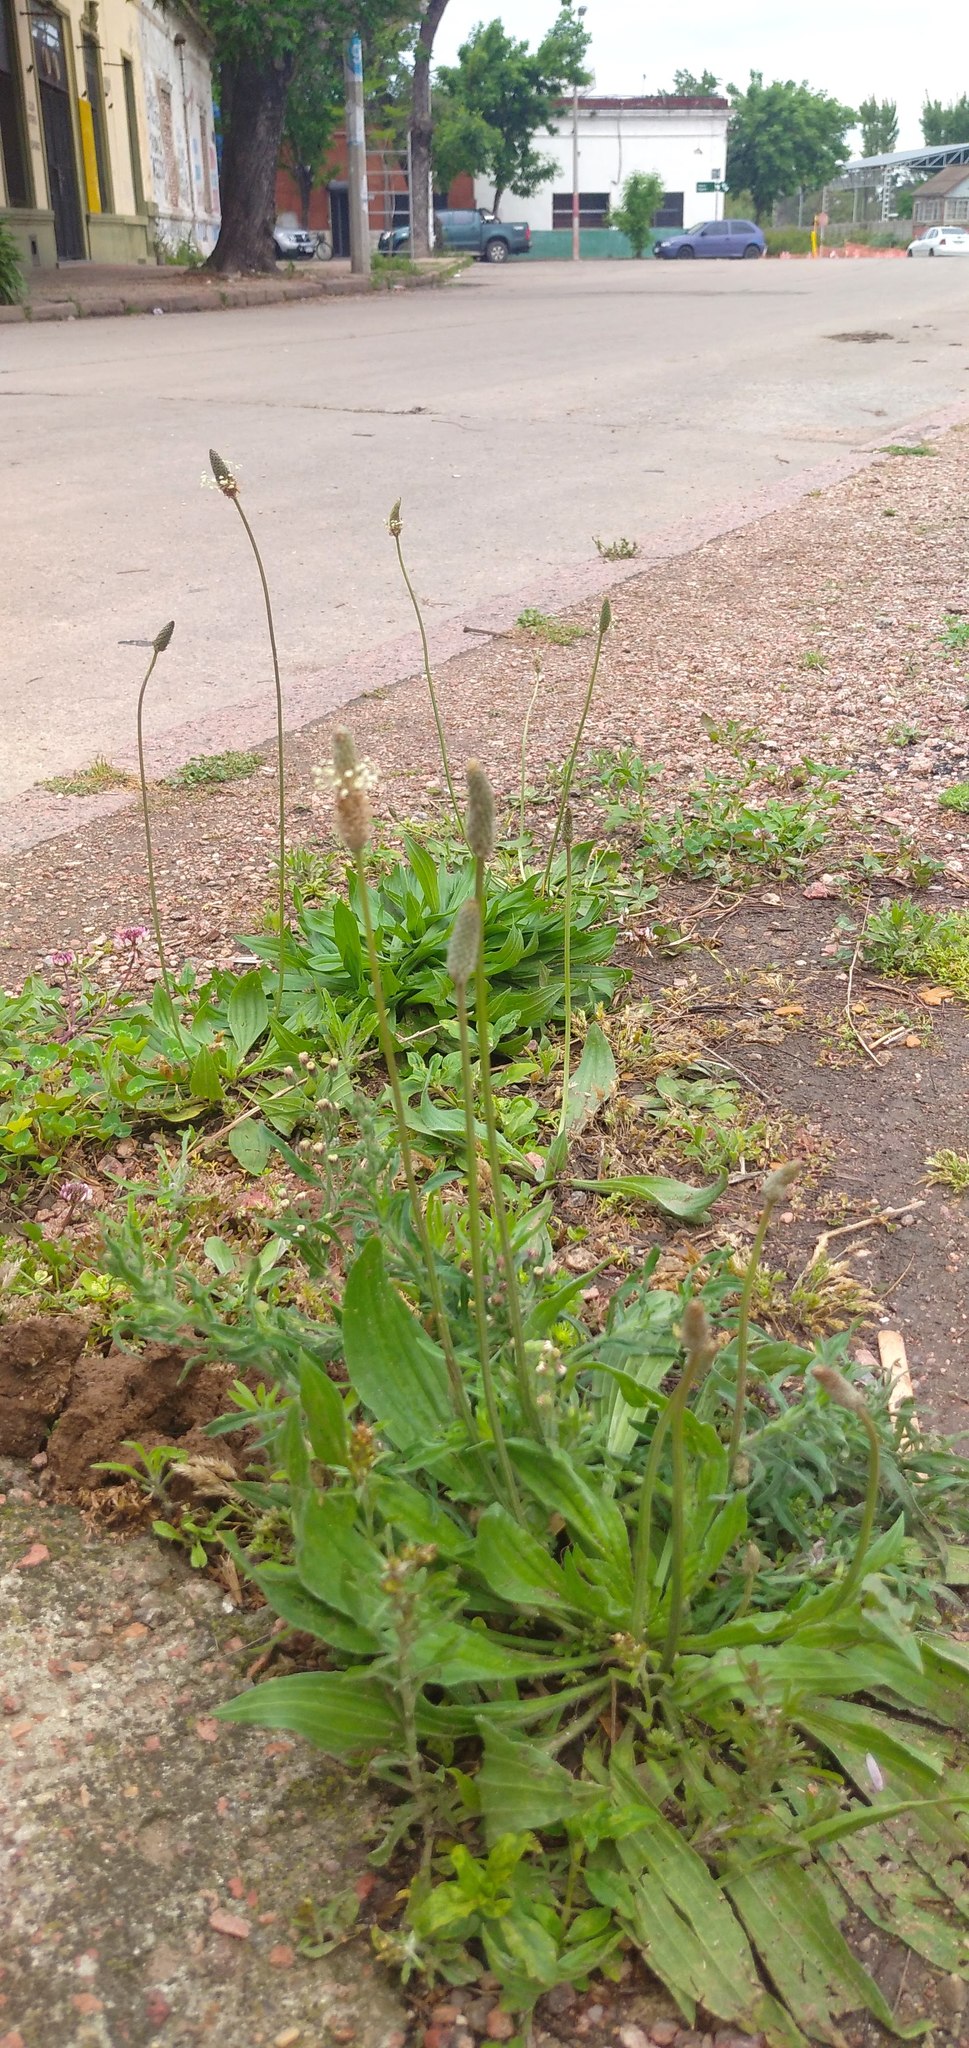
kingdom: Plantae
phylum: Tracheophyta
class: Magnoliopsida
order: Lamiales
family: Plantaginaceae
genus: Plantago
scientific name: Plantago lanceolata
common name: Ribwort plantain
